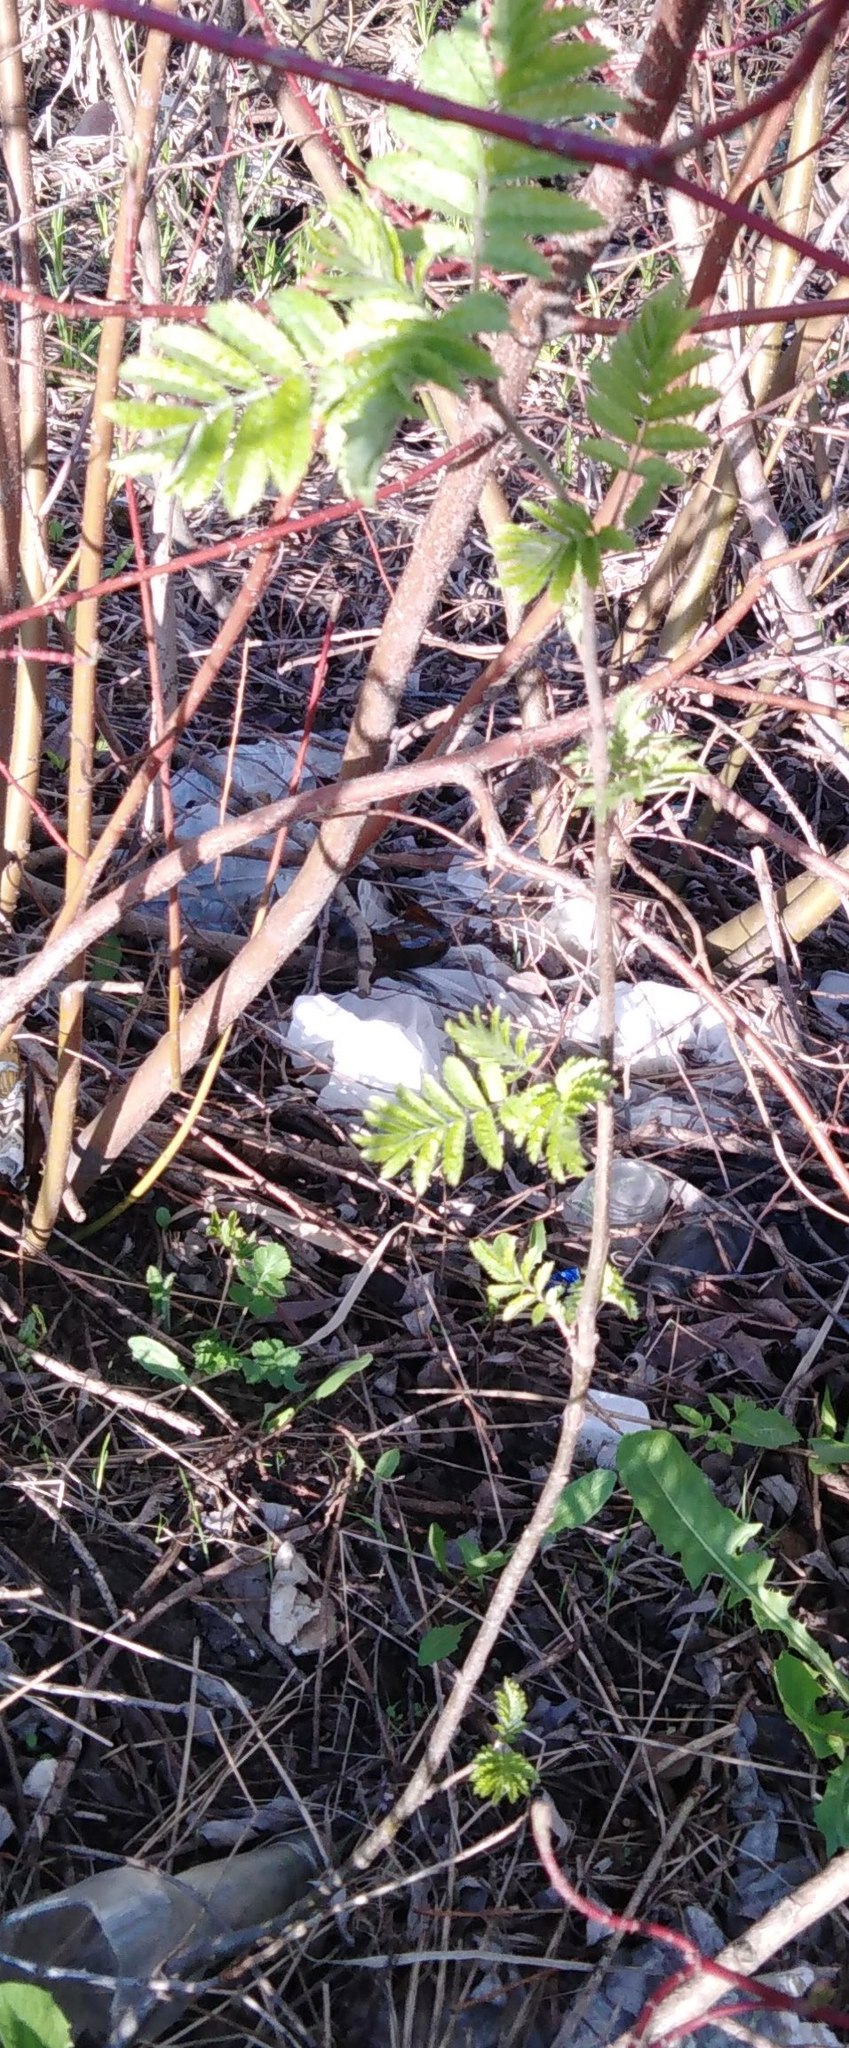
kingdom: Plantae
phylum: Tracheophyta
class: Magnoliopsida
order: Rosales
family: Rosaceae
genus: Sorbus
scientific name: Sorbus aucuparia
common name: Rowan
